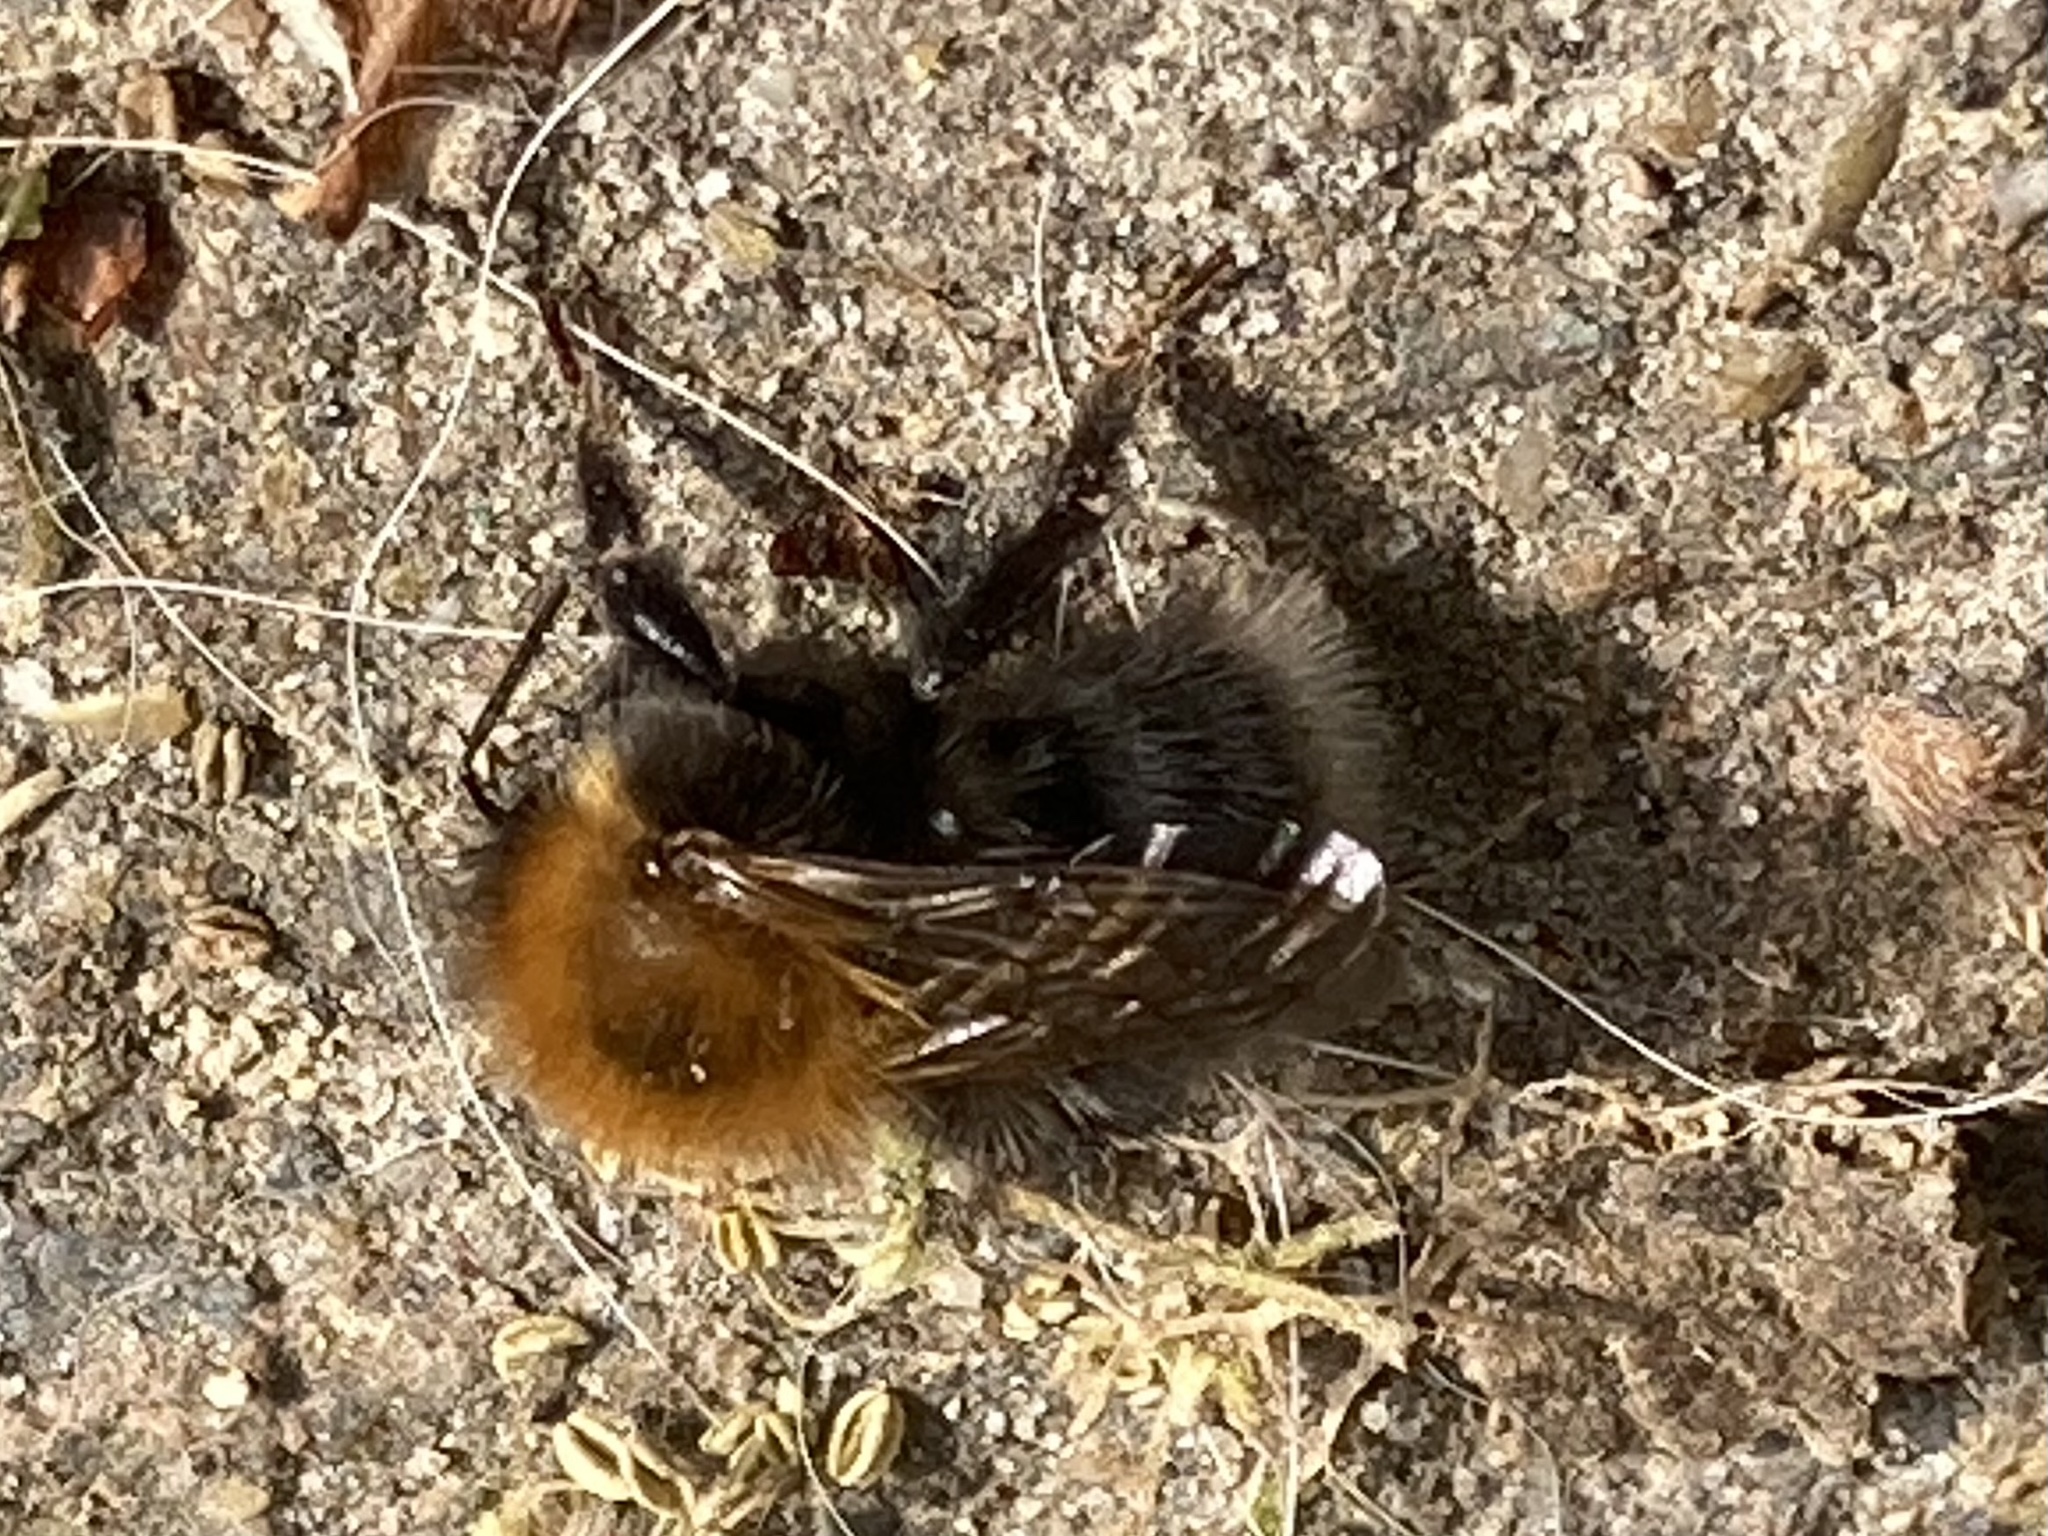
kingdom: Animalia
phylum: Arthropoda
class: Insecta
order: Hymenoptera
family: Apidae
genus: Bombus
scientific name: Bombus hypnorum
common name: New garden bumblebee
